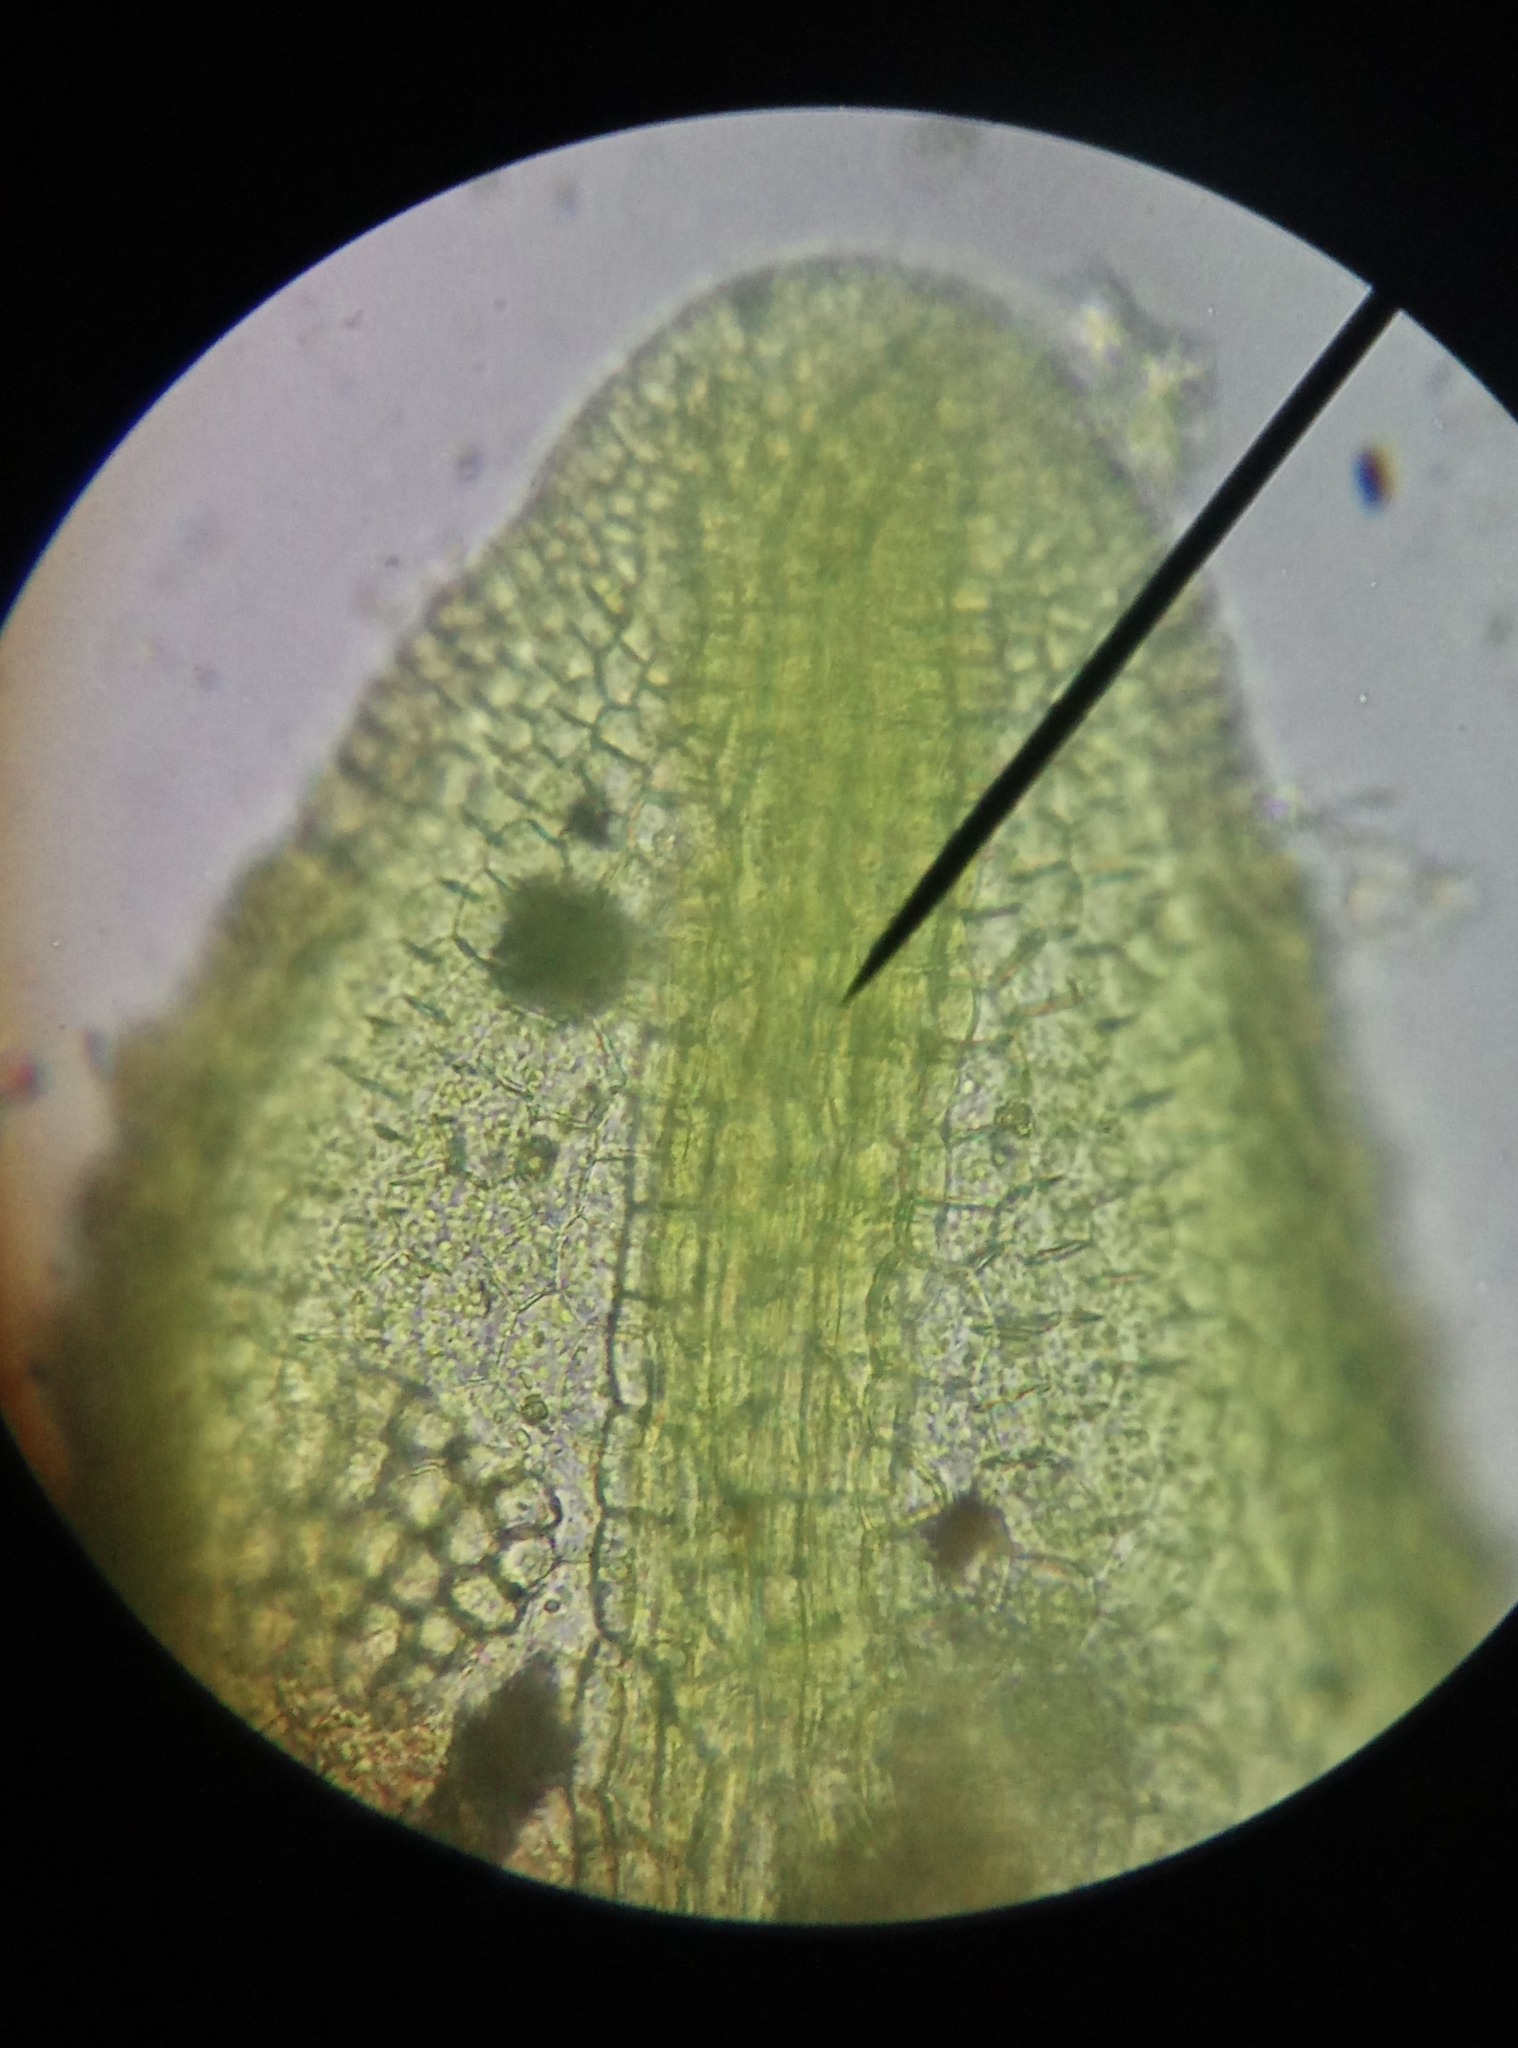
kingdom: Plantae
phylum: Marchantiophyta
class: Jungermanniopsida
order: Metzgeriales
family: Metzgeriaceae
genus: Metzgeria
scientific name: Metzgeria violacea
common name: Blueish veilwort
